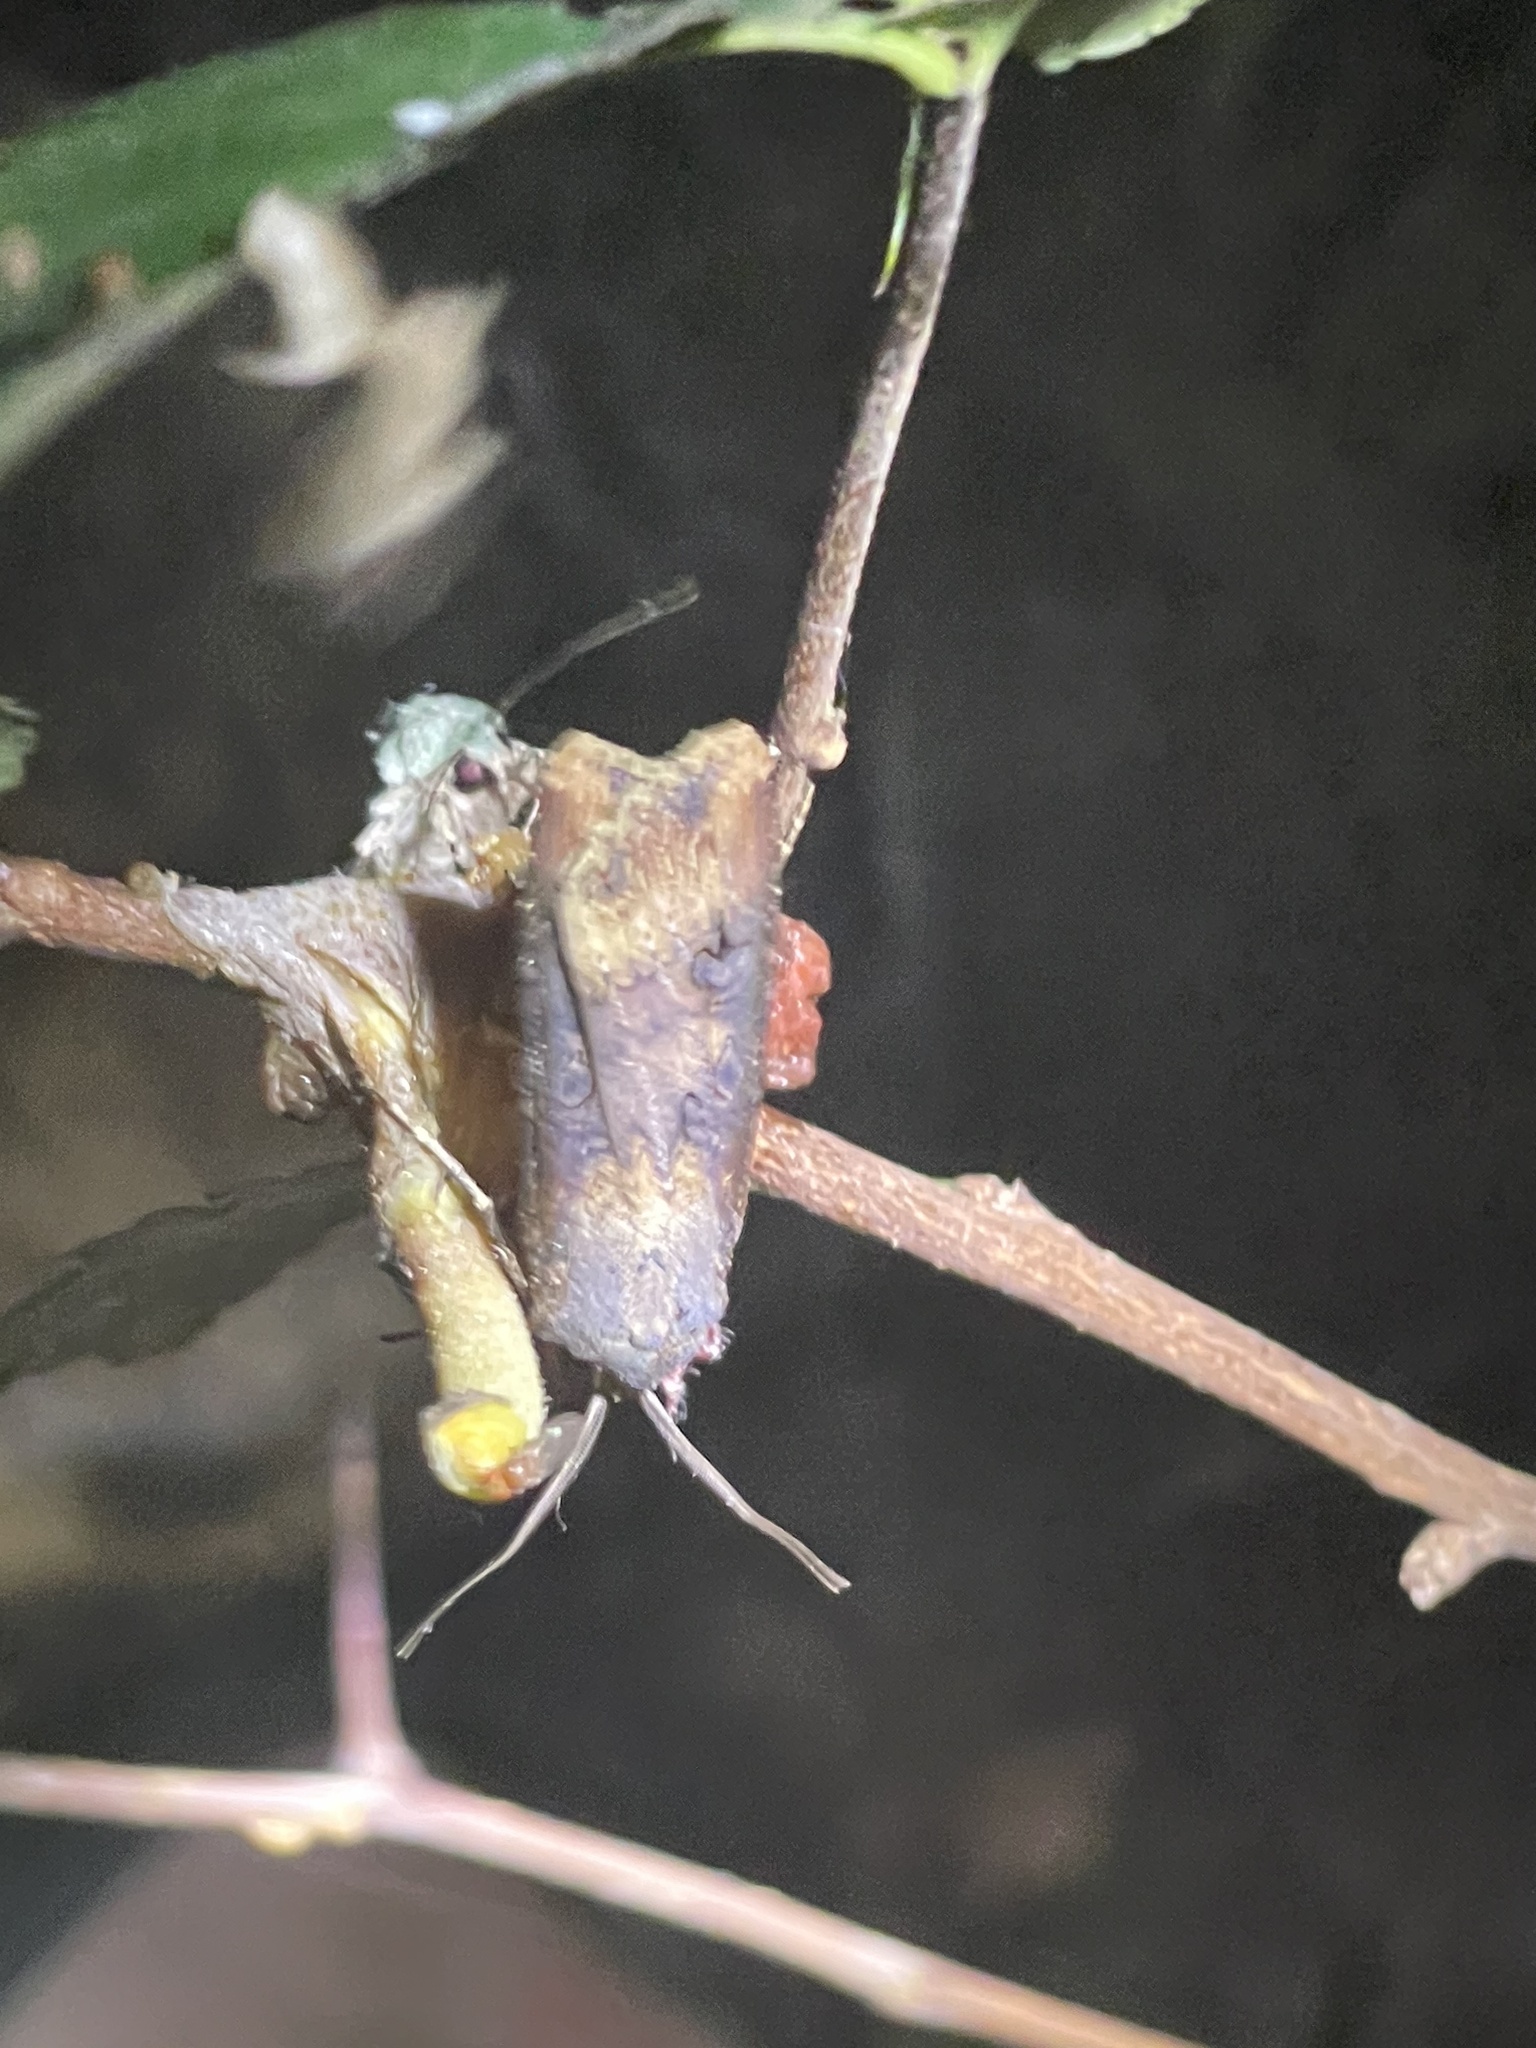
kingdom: Animalia
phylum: Arthropoda
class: Insecta
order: Lepidoptera
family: Noctuidae
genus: Agrotis
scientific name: Agrotis ipsilon
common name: Dark sword-grass
